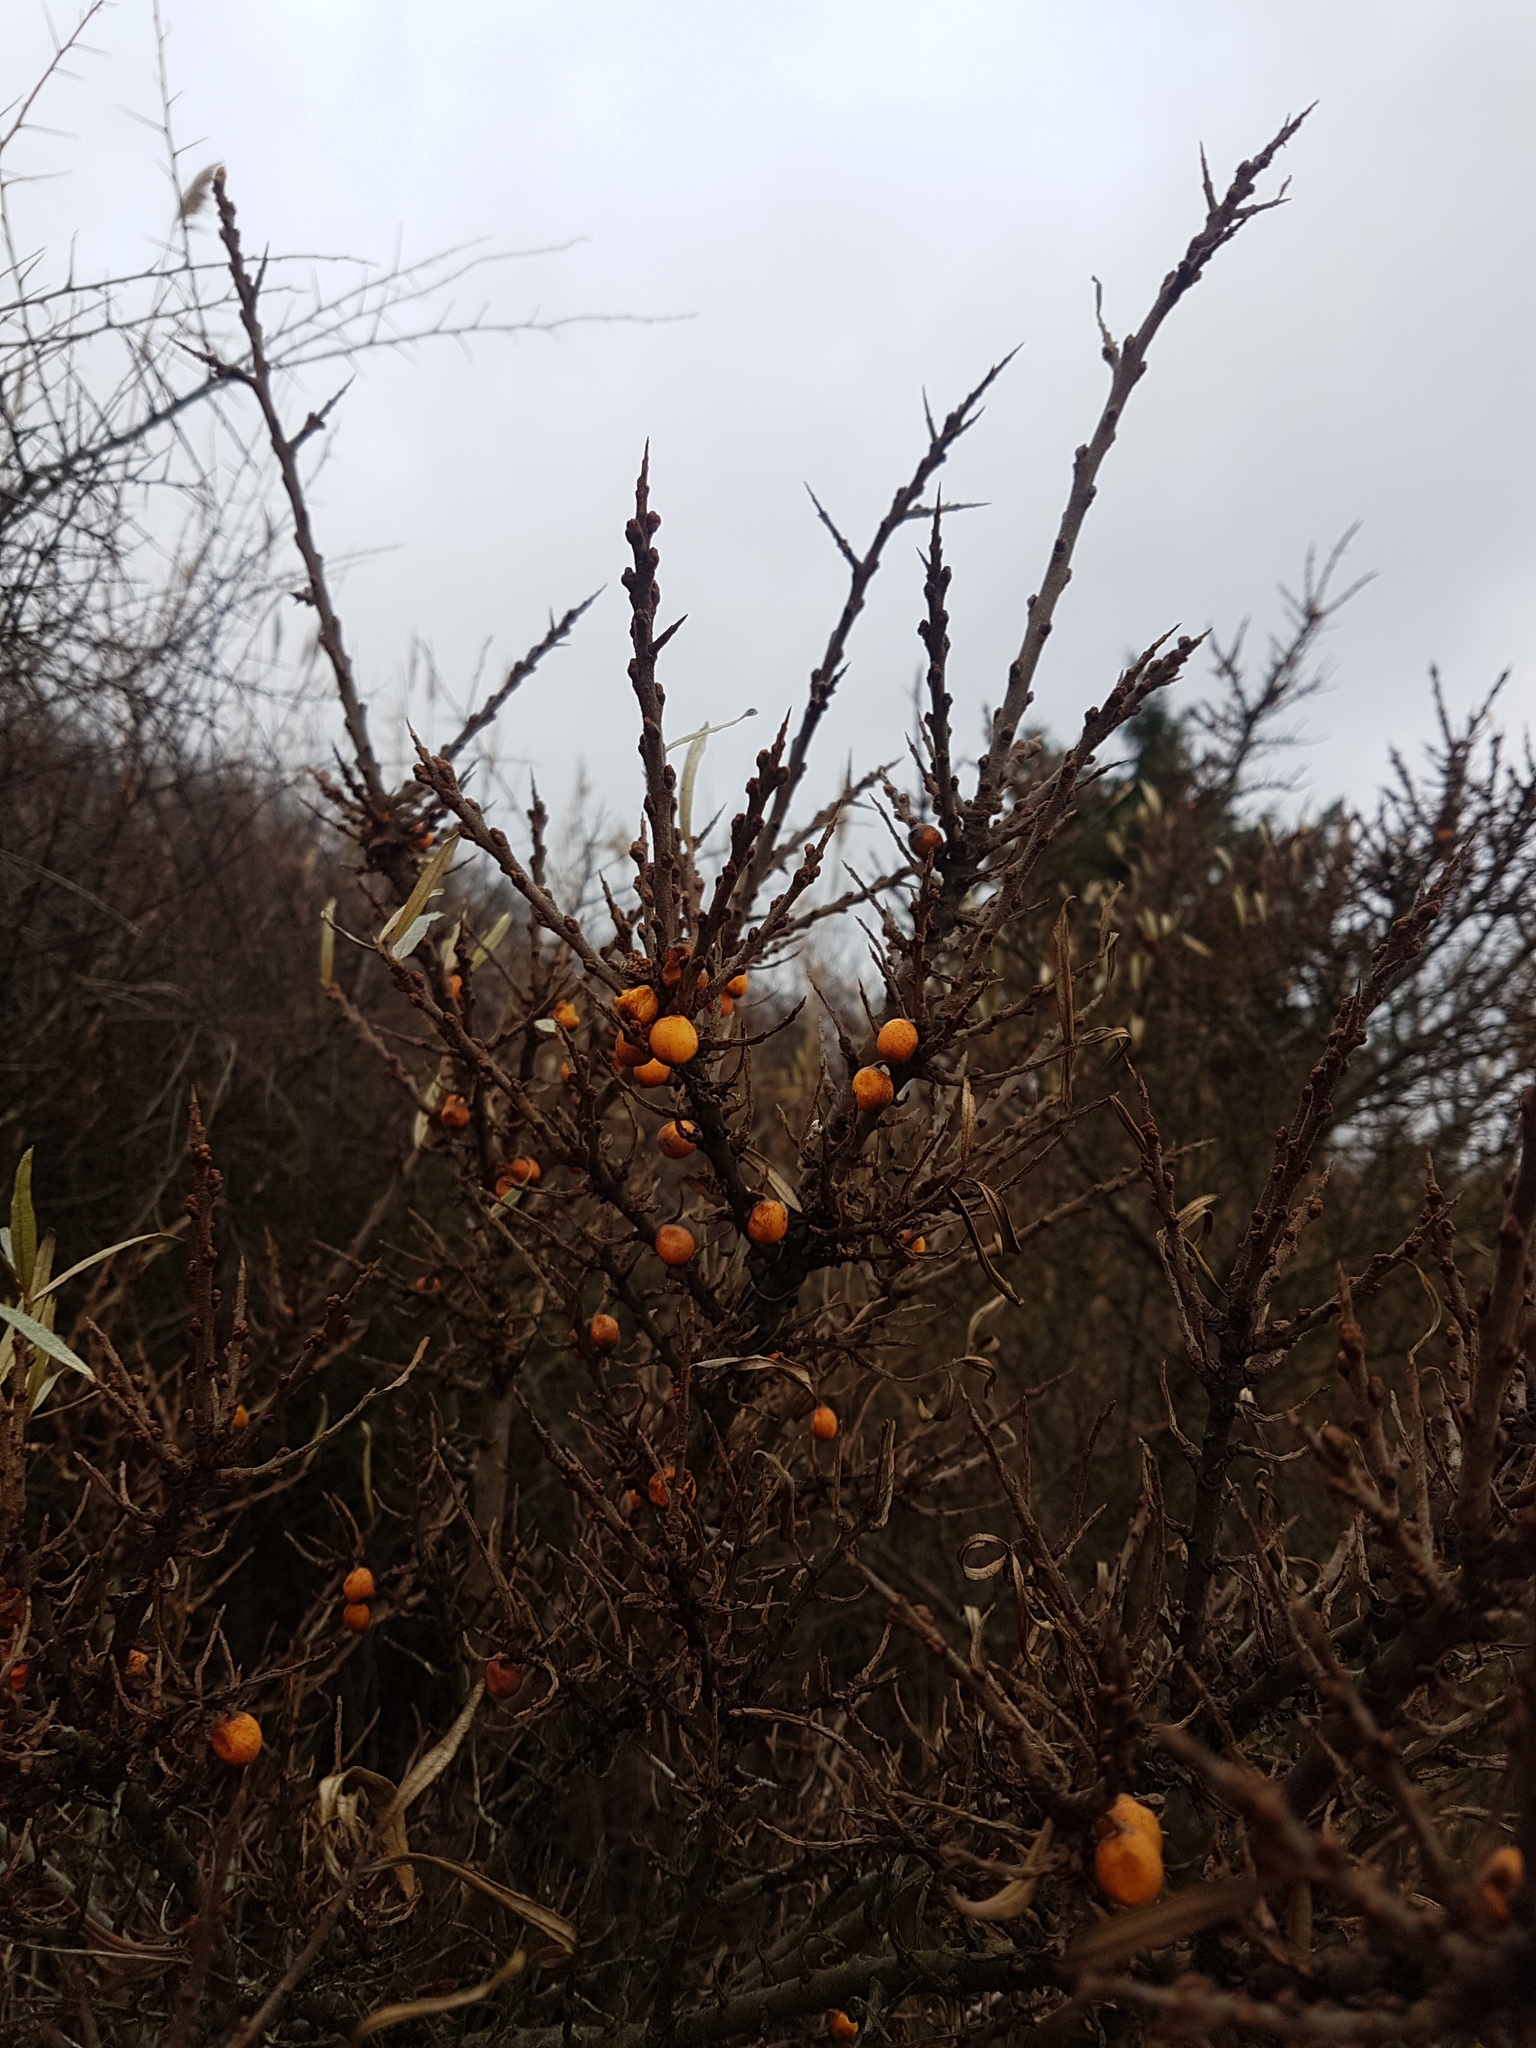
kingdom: Plantae
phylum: Tracheophyta
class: Magnoliopsida
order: Rosales
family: Elaeagnaceae
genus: Hippophae
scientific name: Hippophae rhamnoides
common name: Sea-buckthorn
